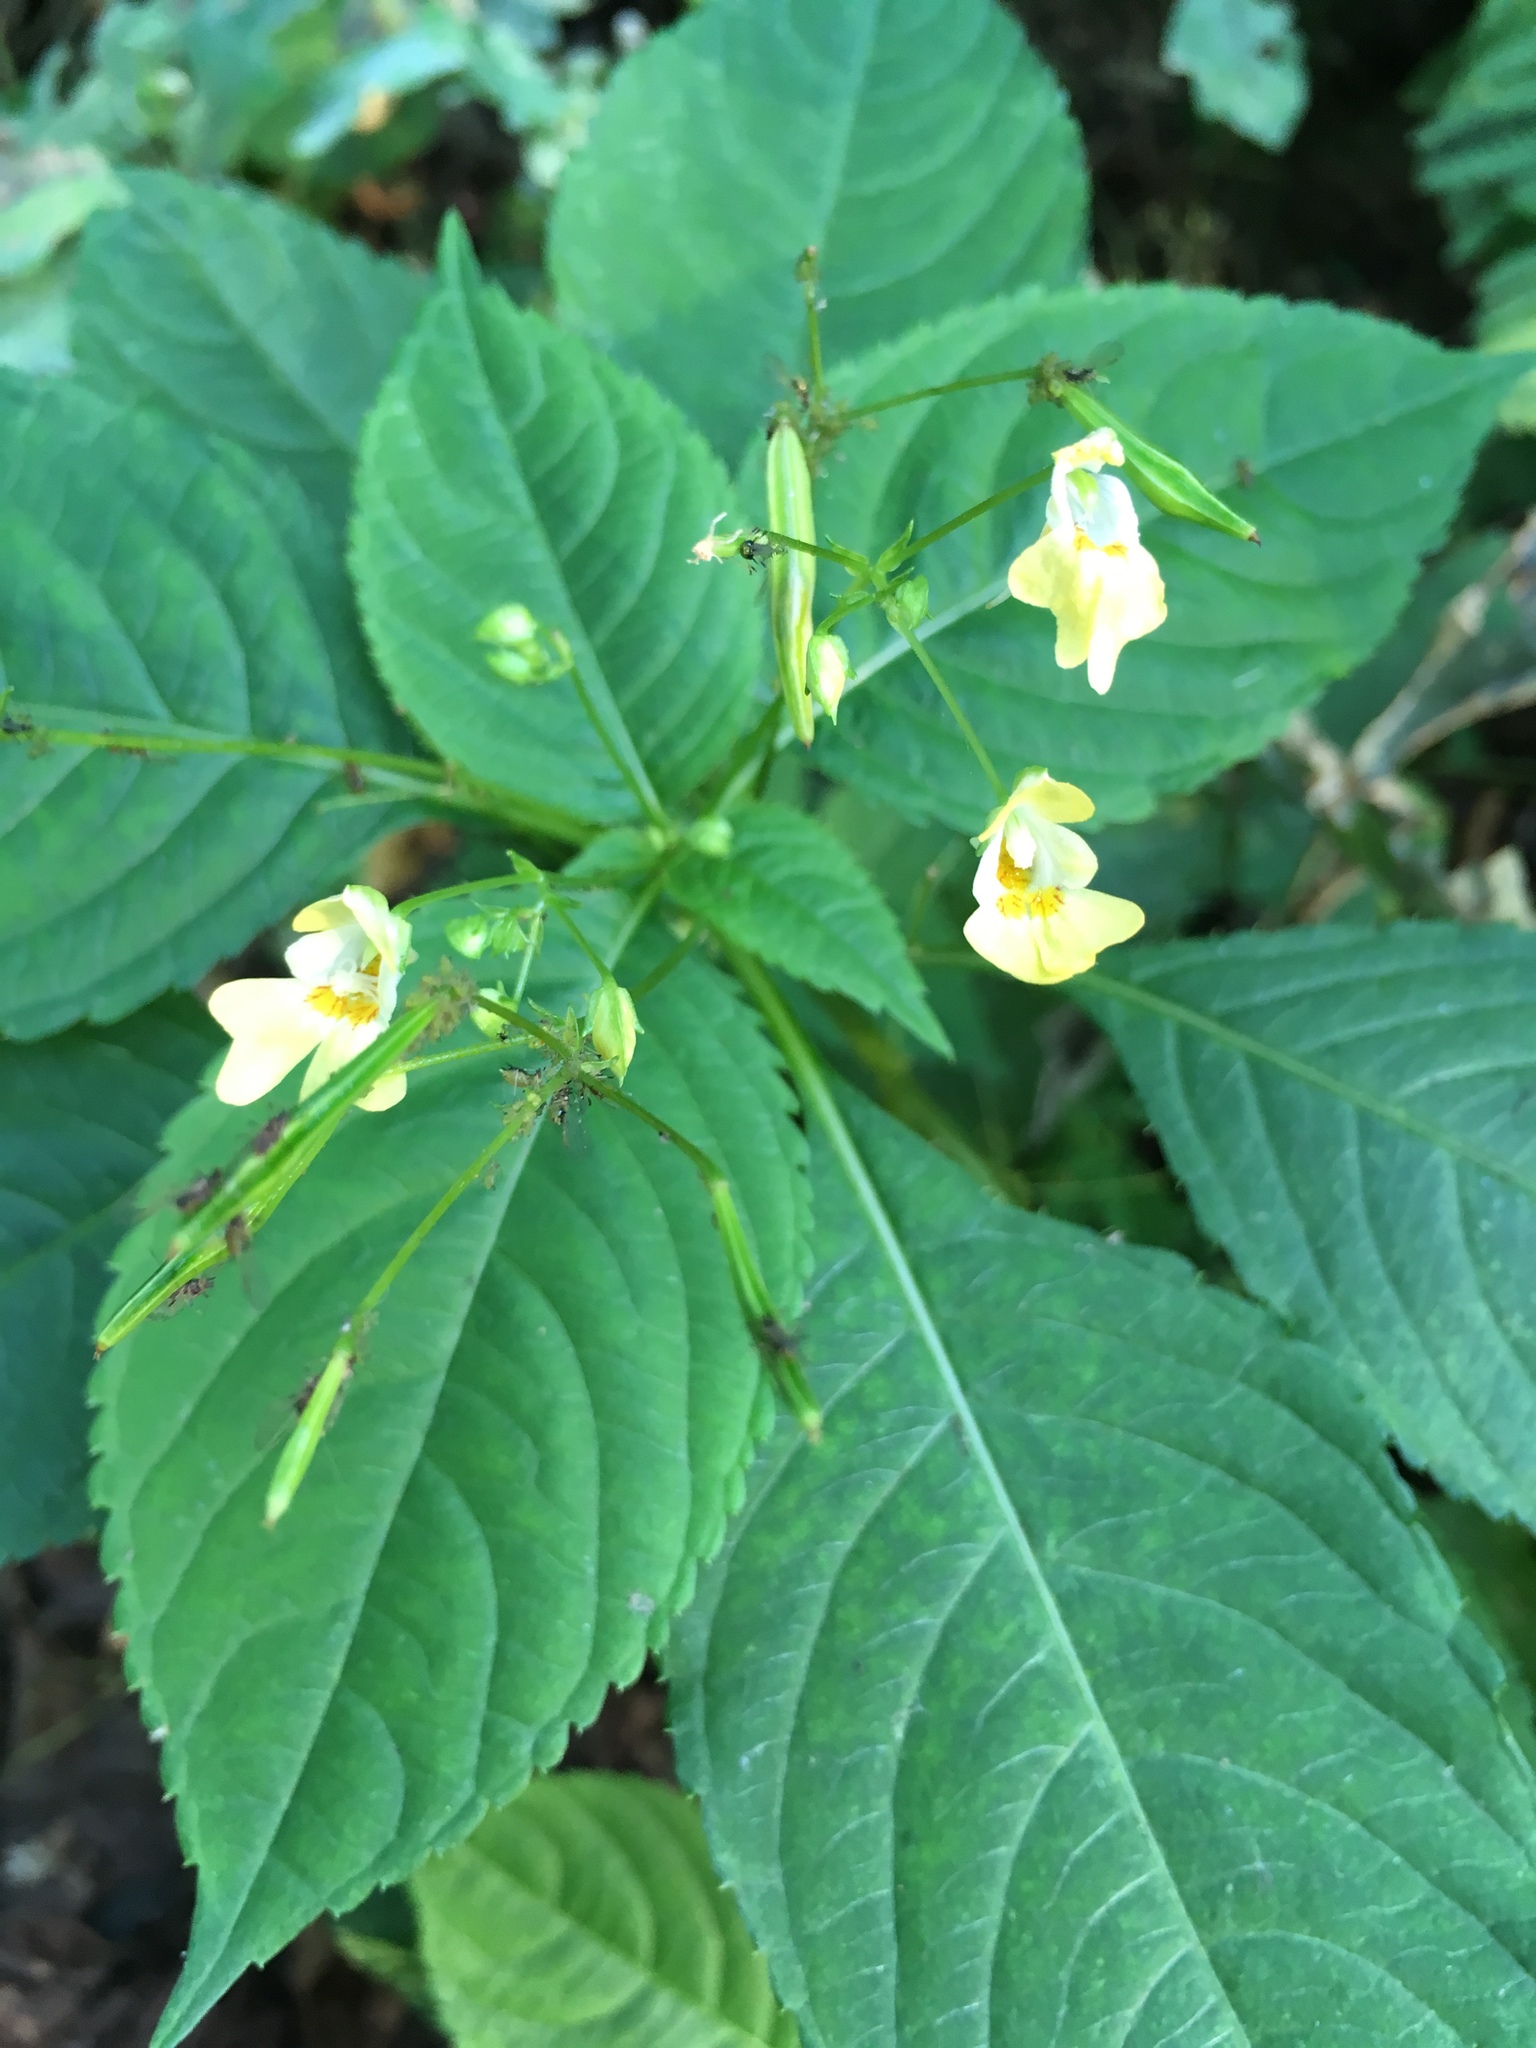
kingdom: Plantae
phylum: Tracheophyta
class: Magnoliopsida
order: Ericales
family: Balsaminaceae
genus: Impatiens
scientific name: Impatiens parviflora
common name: Small balsam
